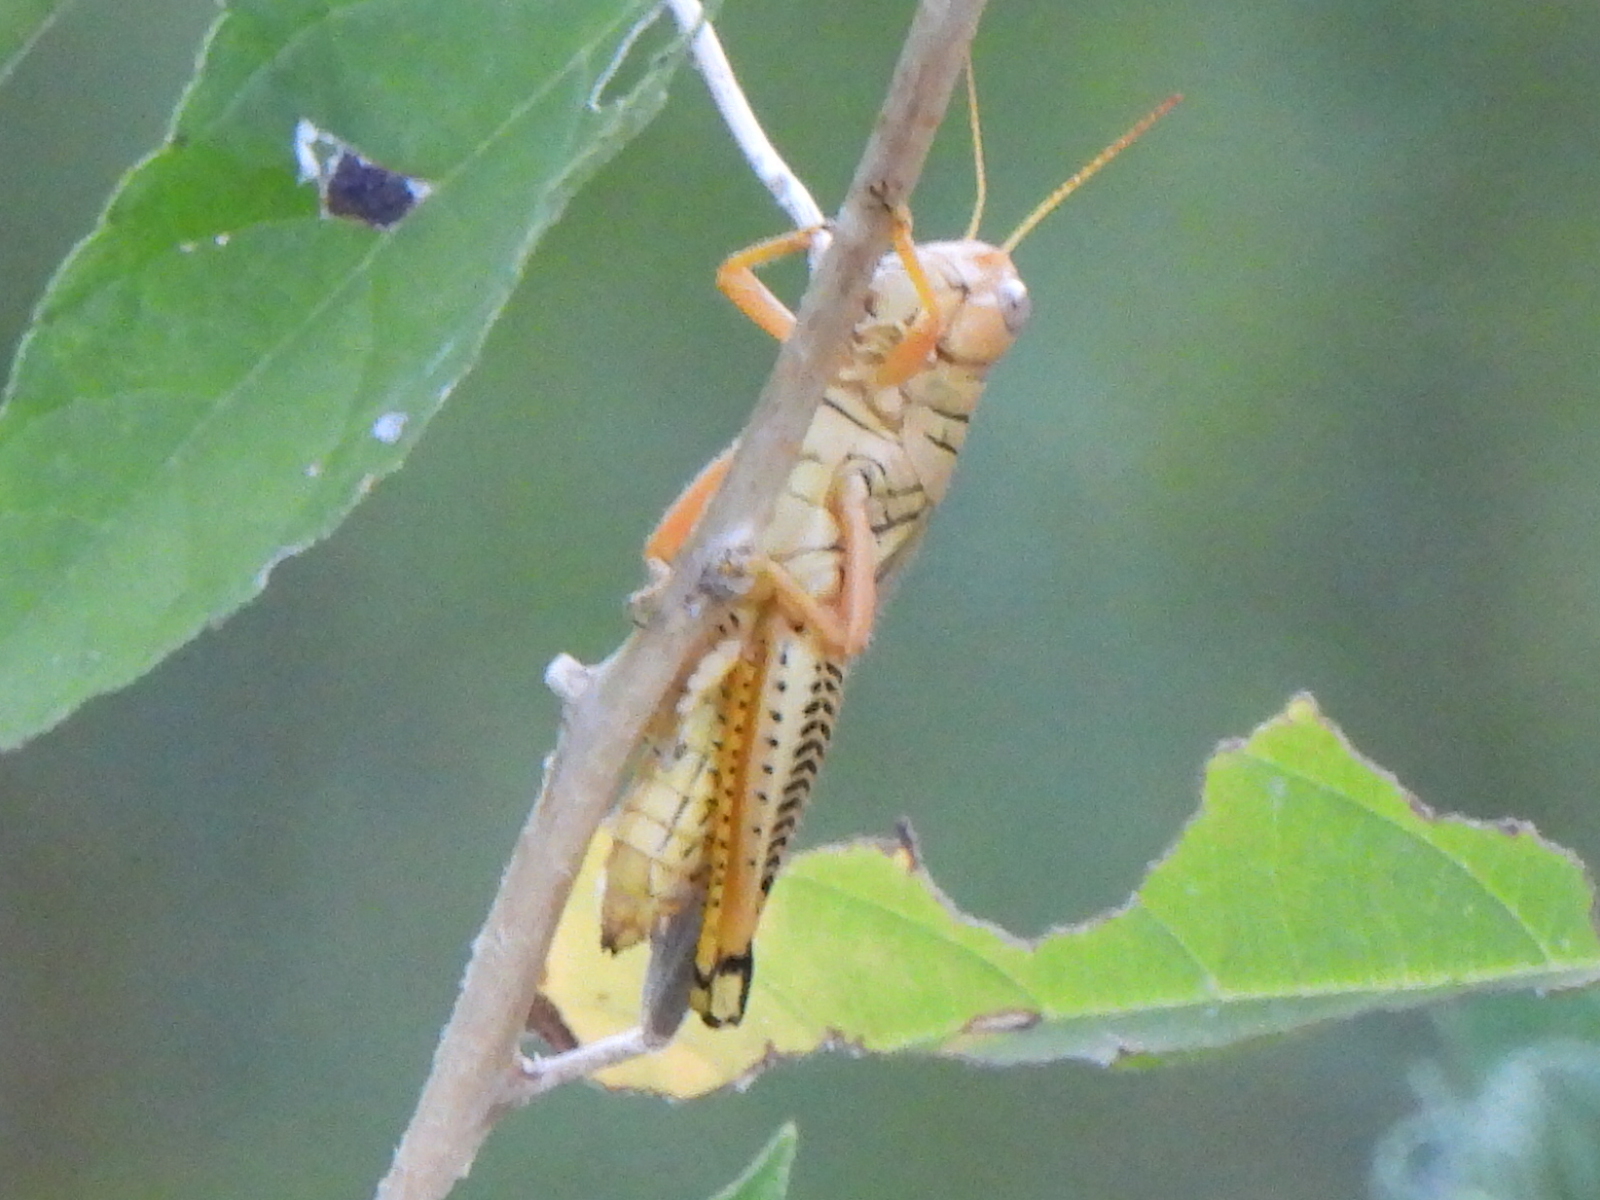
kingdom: Animalia
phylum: Arthropoda
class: Insecta
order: Orthoptera
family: Acrididae
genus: Melanoplus
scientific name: Melanoplus differentialis
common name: Differential grasshopper
